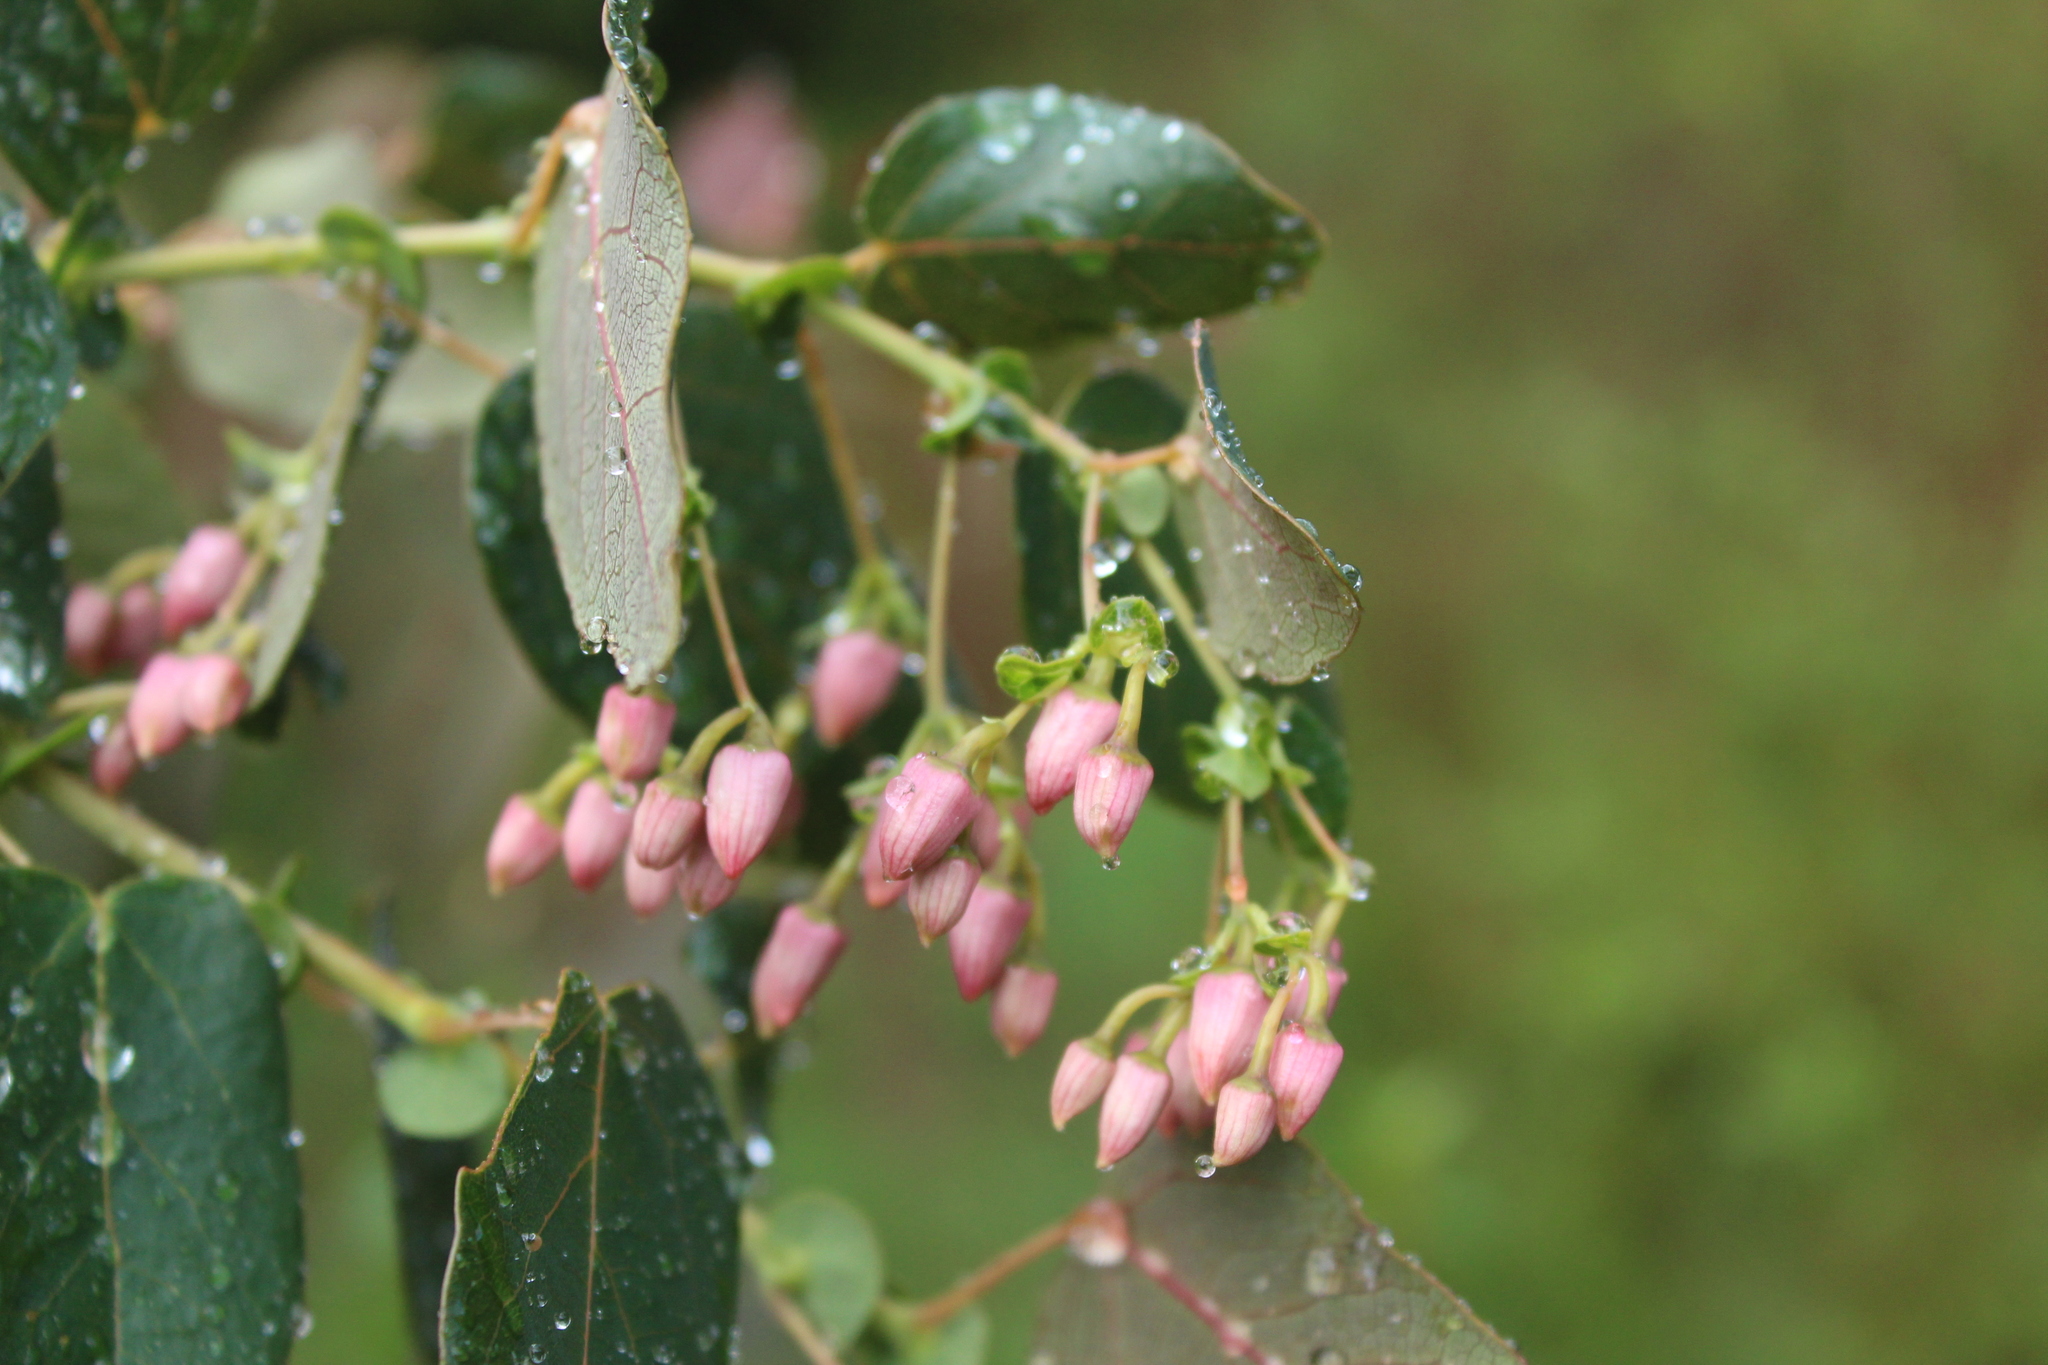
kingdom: Plantae
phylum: Tracheophyta
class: Magnoliopsida
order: Oxalidales
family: Elaeocarpaceae
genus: Vallea
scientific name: Vallea stipularis
